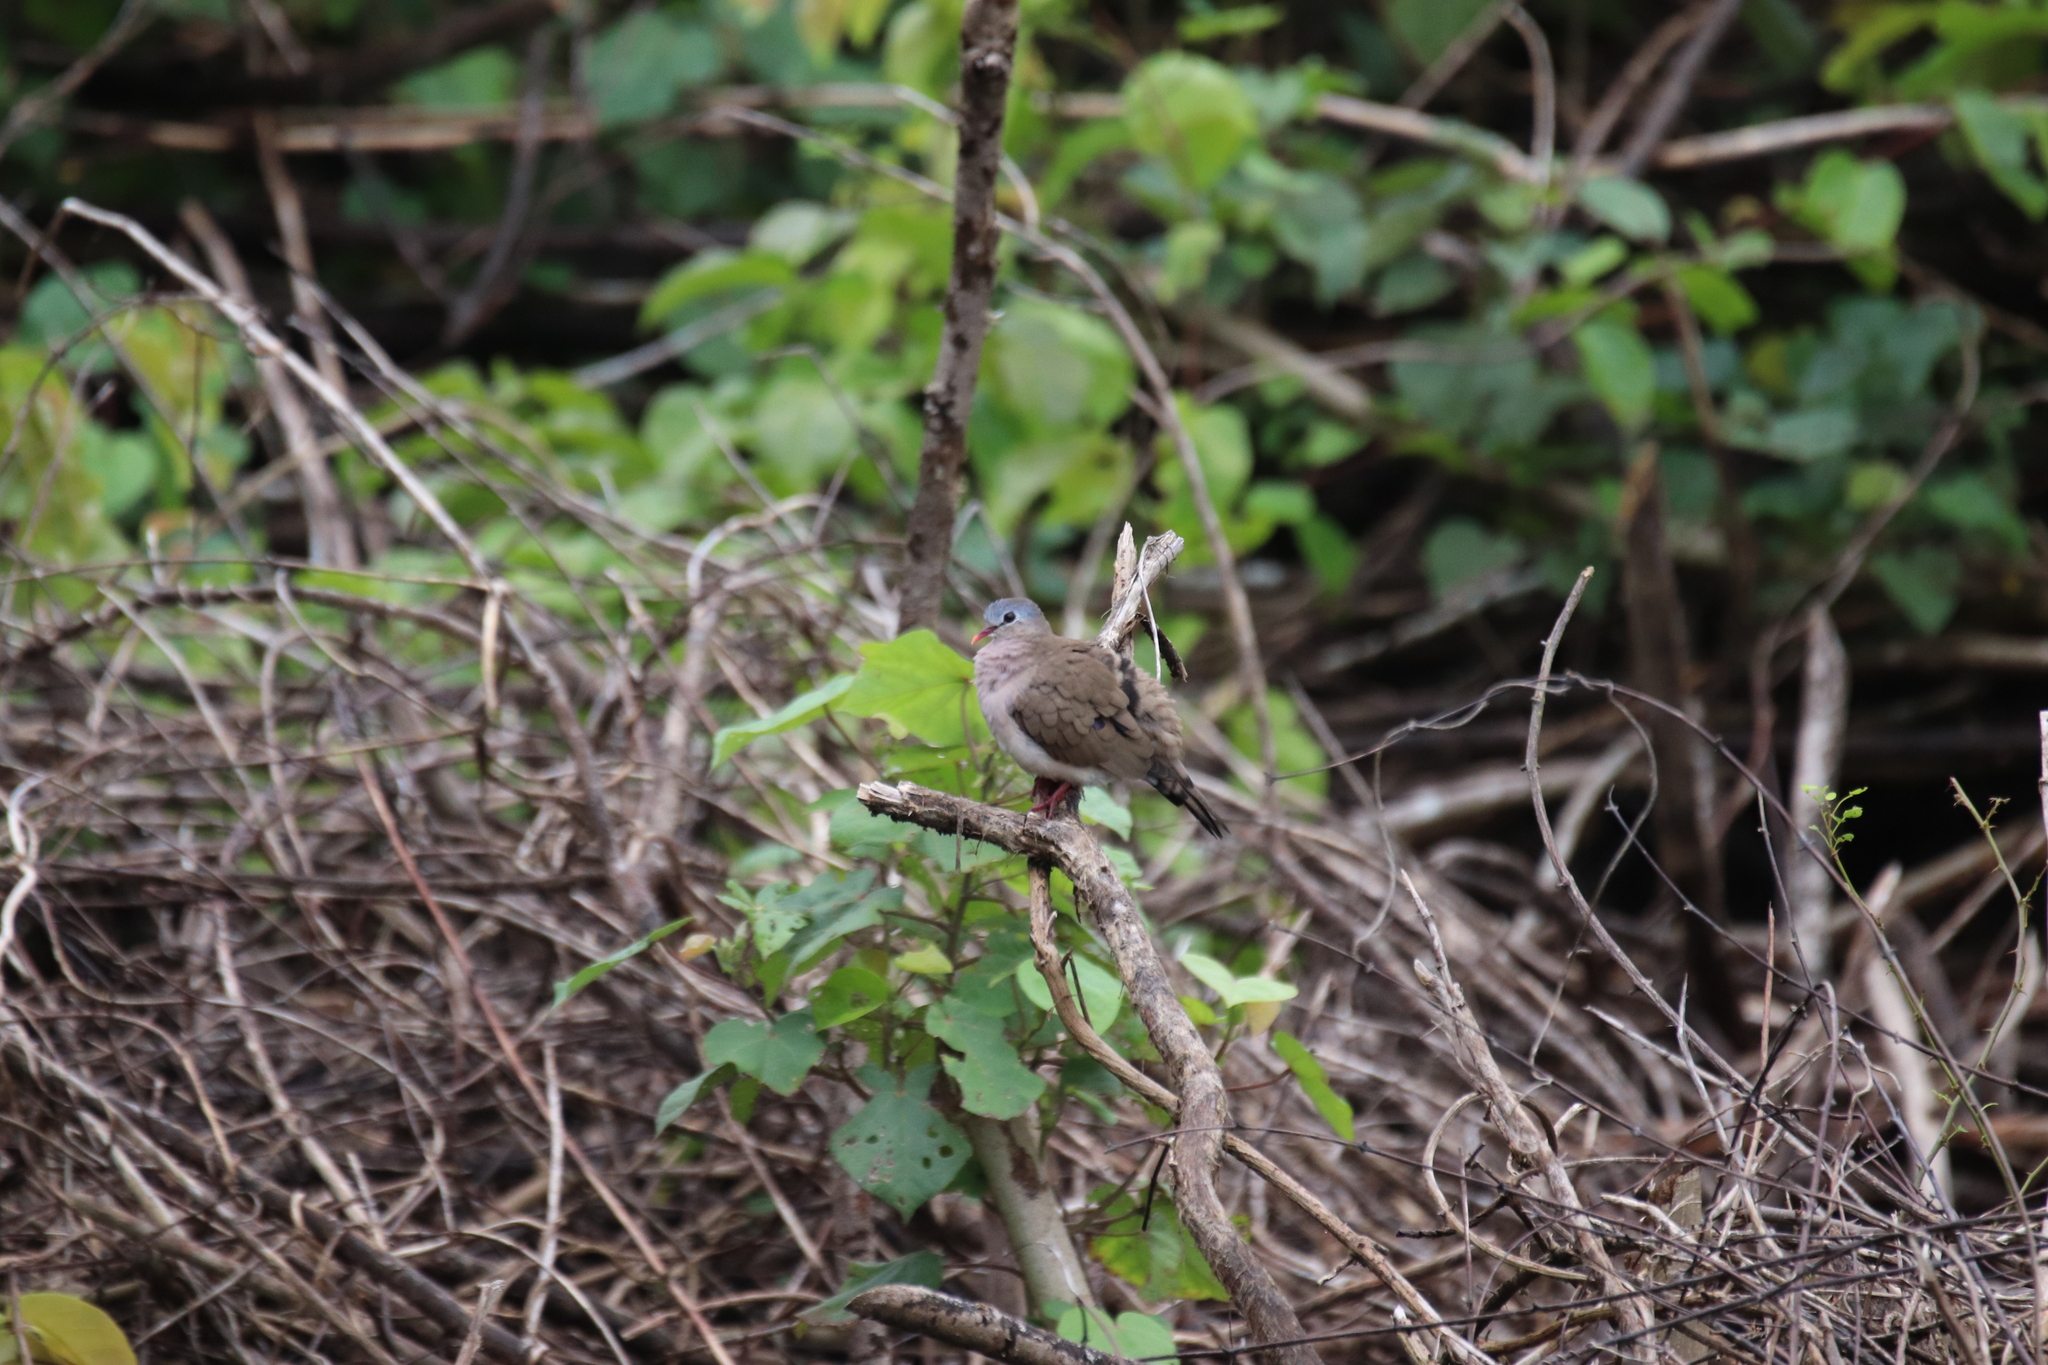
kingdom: Animalia
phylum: Chordata
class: Aves
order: Columbiformes
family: Columbidae
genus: Turtur
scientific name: Turtur afer
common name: Blue-spotted wood dove
